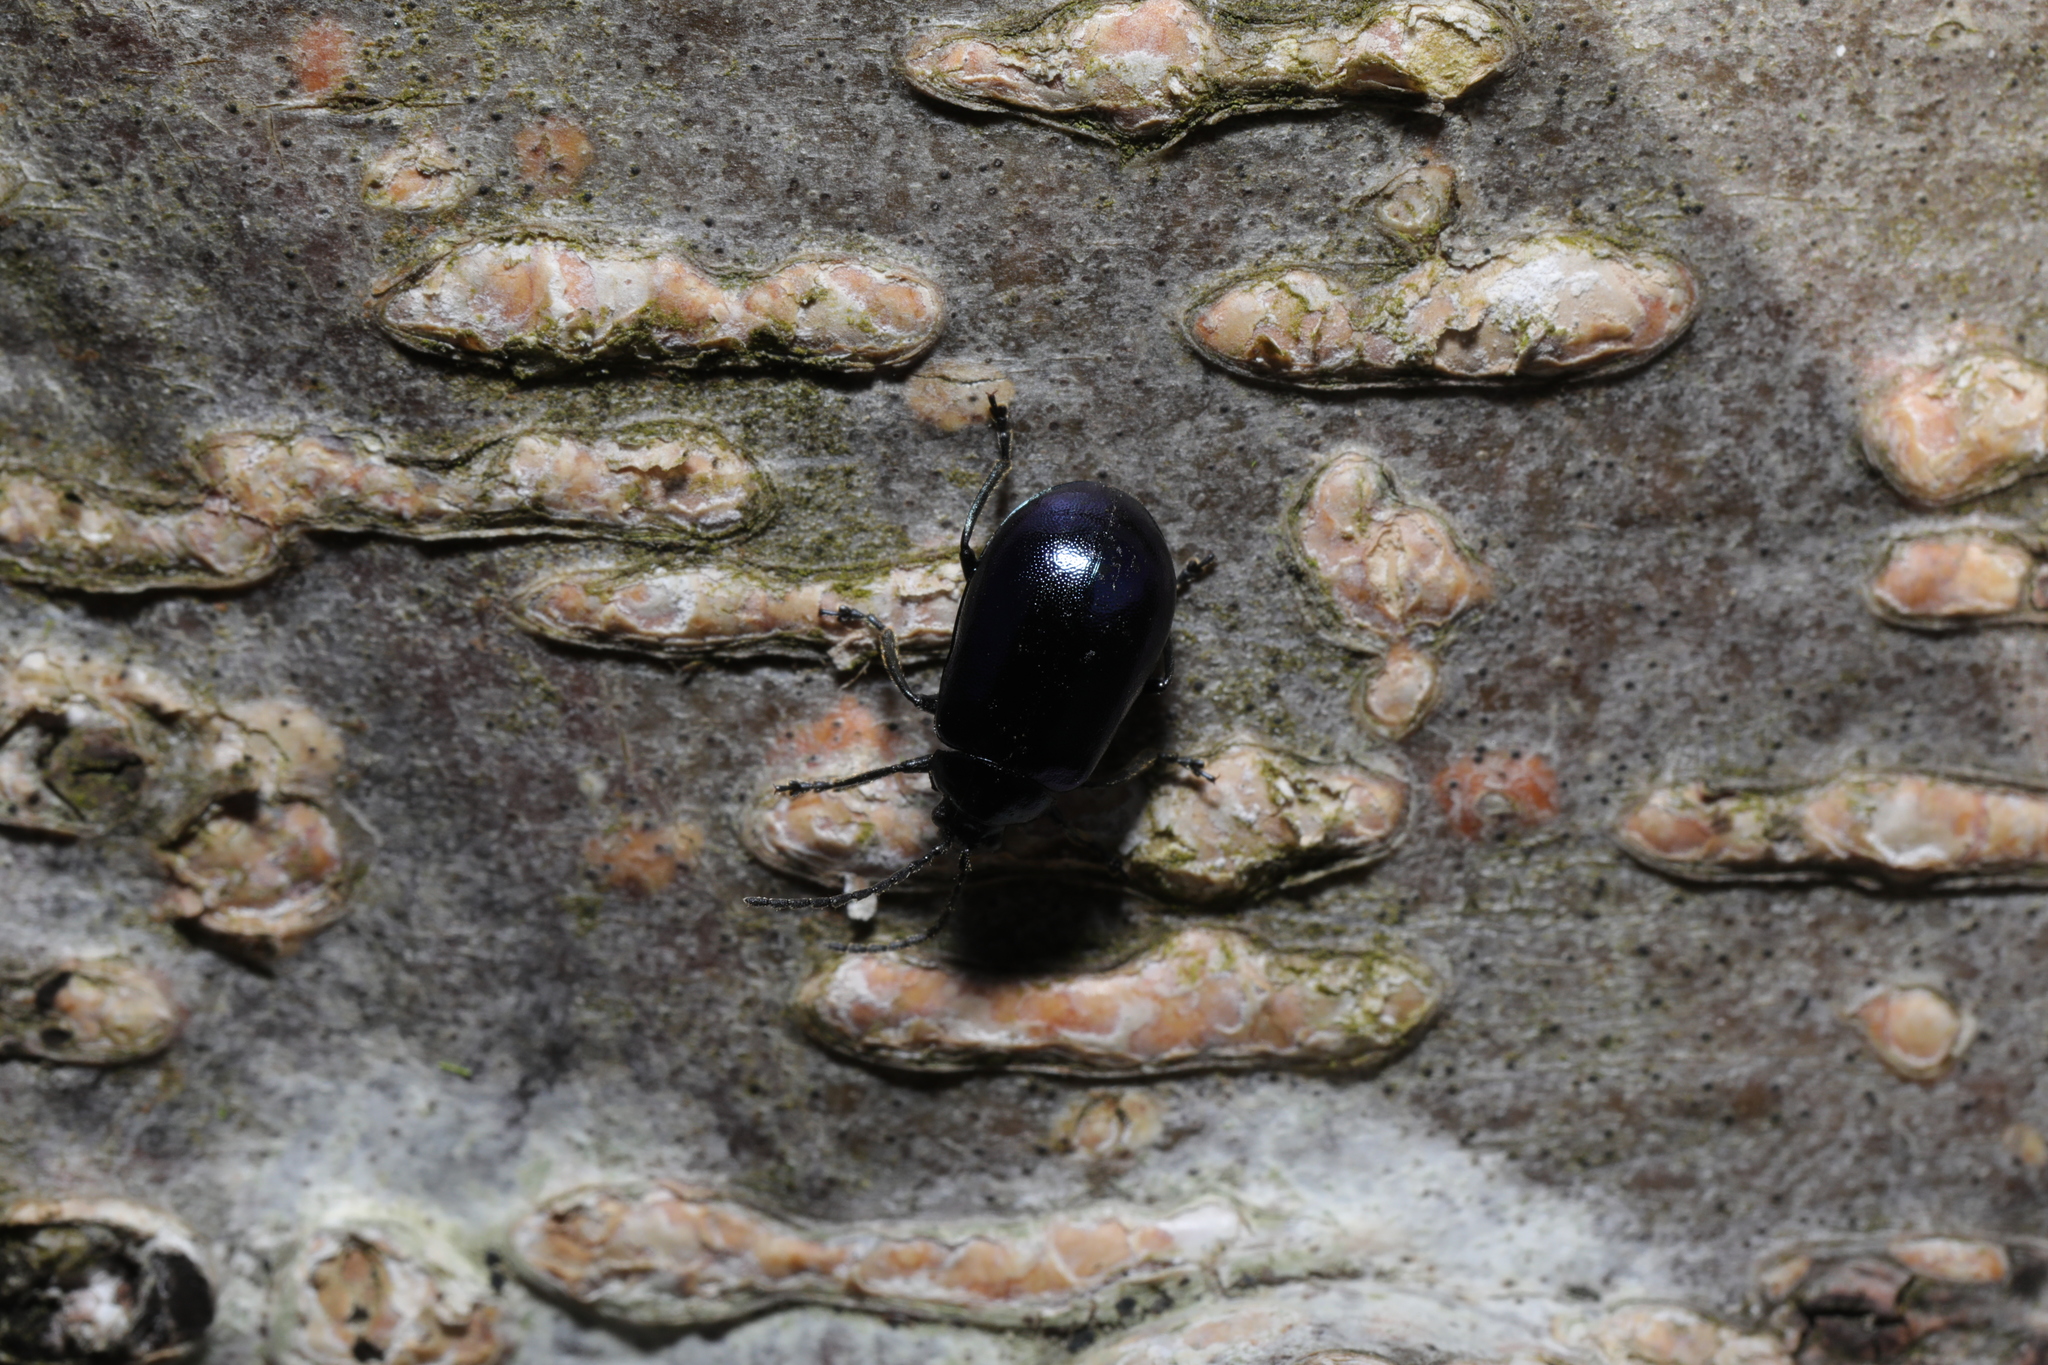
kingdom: Animalia
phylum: Arthropoda
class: Insecta
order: Coleoptera
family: Chrysomelidae
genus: Agelastica
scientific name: Agelastica alni
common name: Alder leaf beetle
